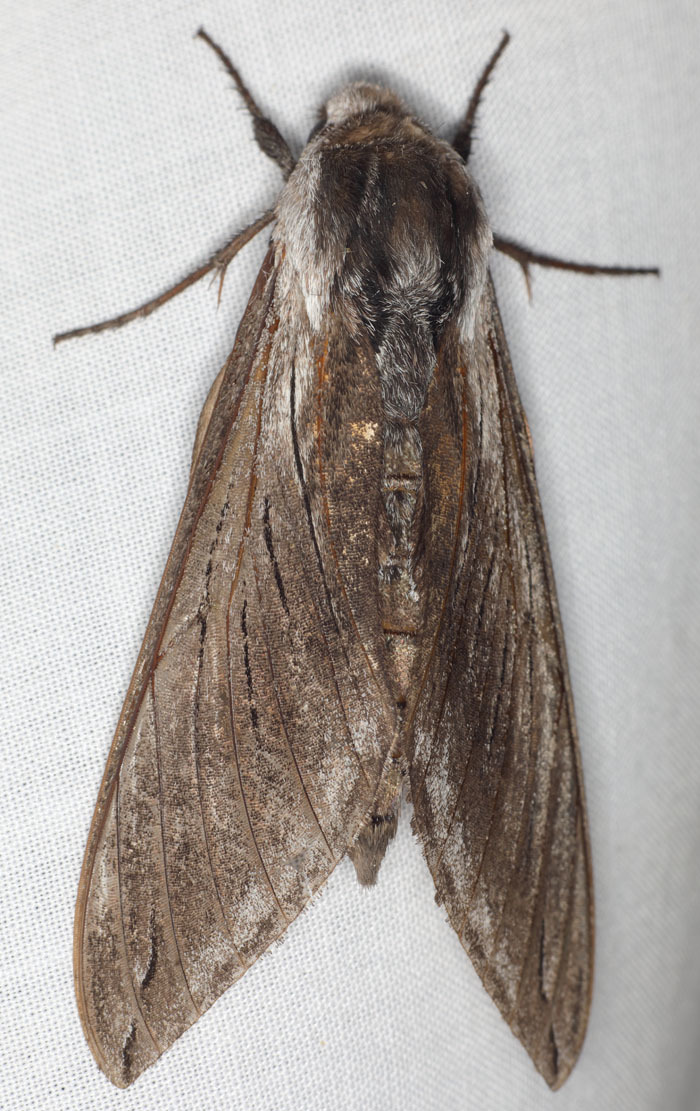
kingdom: Animalia
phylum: Arthropoda
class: Insecta
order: Lepidoptera
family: Sphingidae
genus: Sphinx
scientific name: Sphinx perelegans
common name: Elegant sphinx
